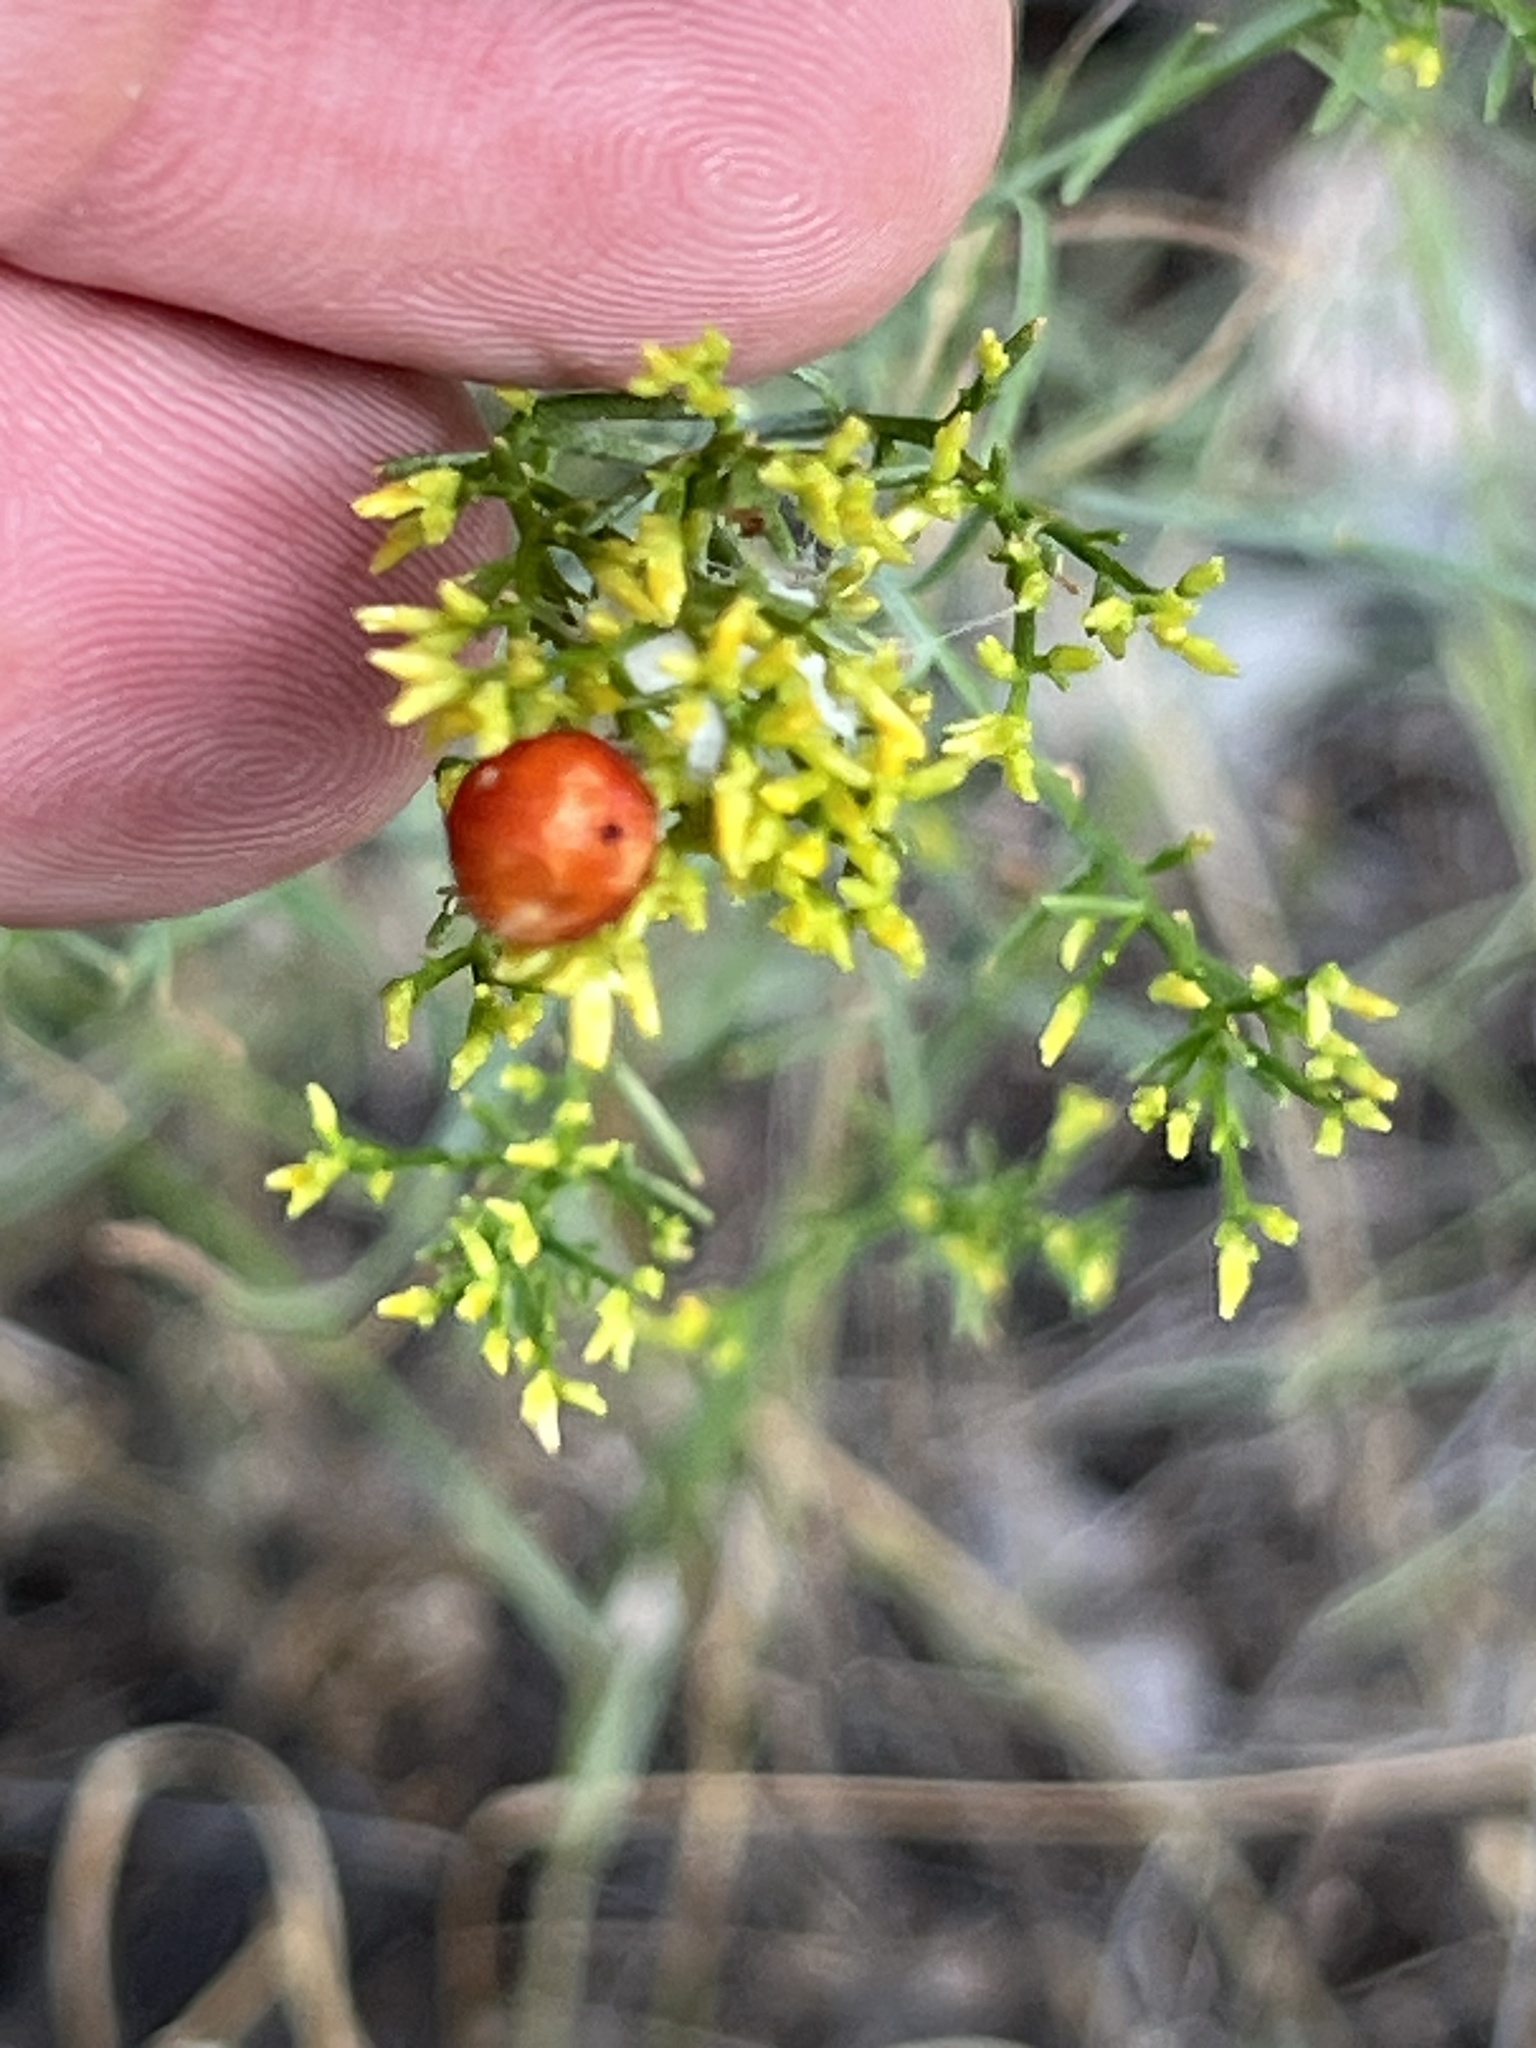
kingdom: Plantae
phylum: Tracheophyta
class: Magnoliopsida
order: Asterales
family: Asteraceae
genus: Gutierrezia
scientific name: Gutierrezia microcephala
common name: Thread snakeweed
